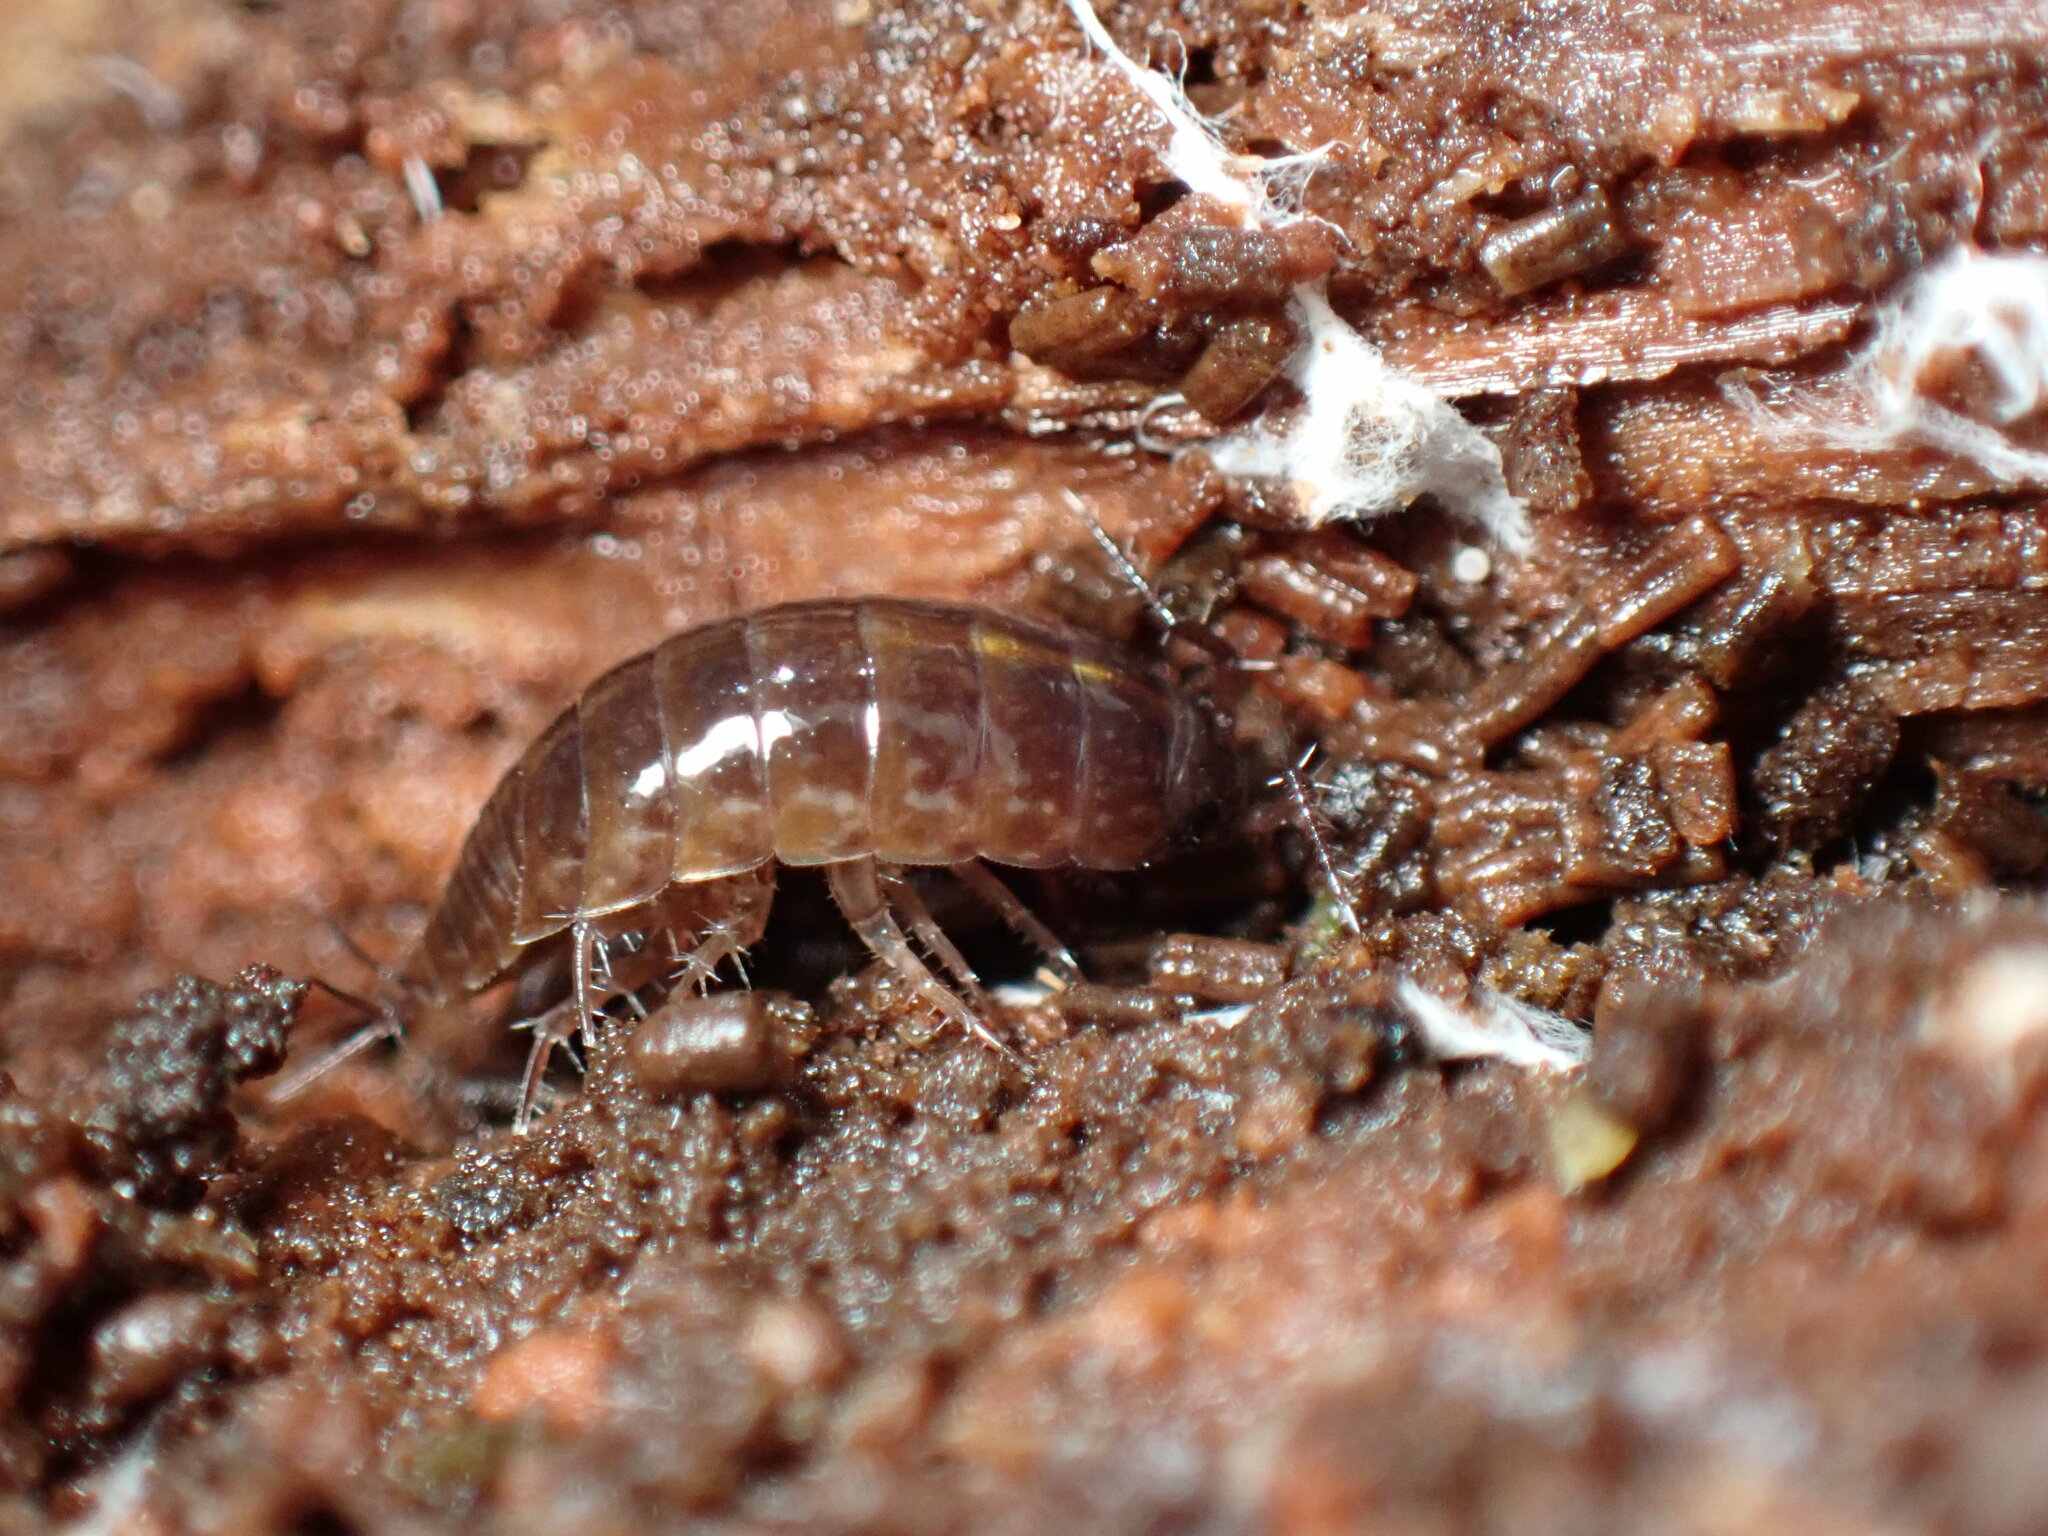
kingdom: Animalia
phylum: Arthropoda
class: Malacostraca
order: Isopoda
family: Ligiidae
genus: Ligidium
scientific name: Ligidium gracile
